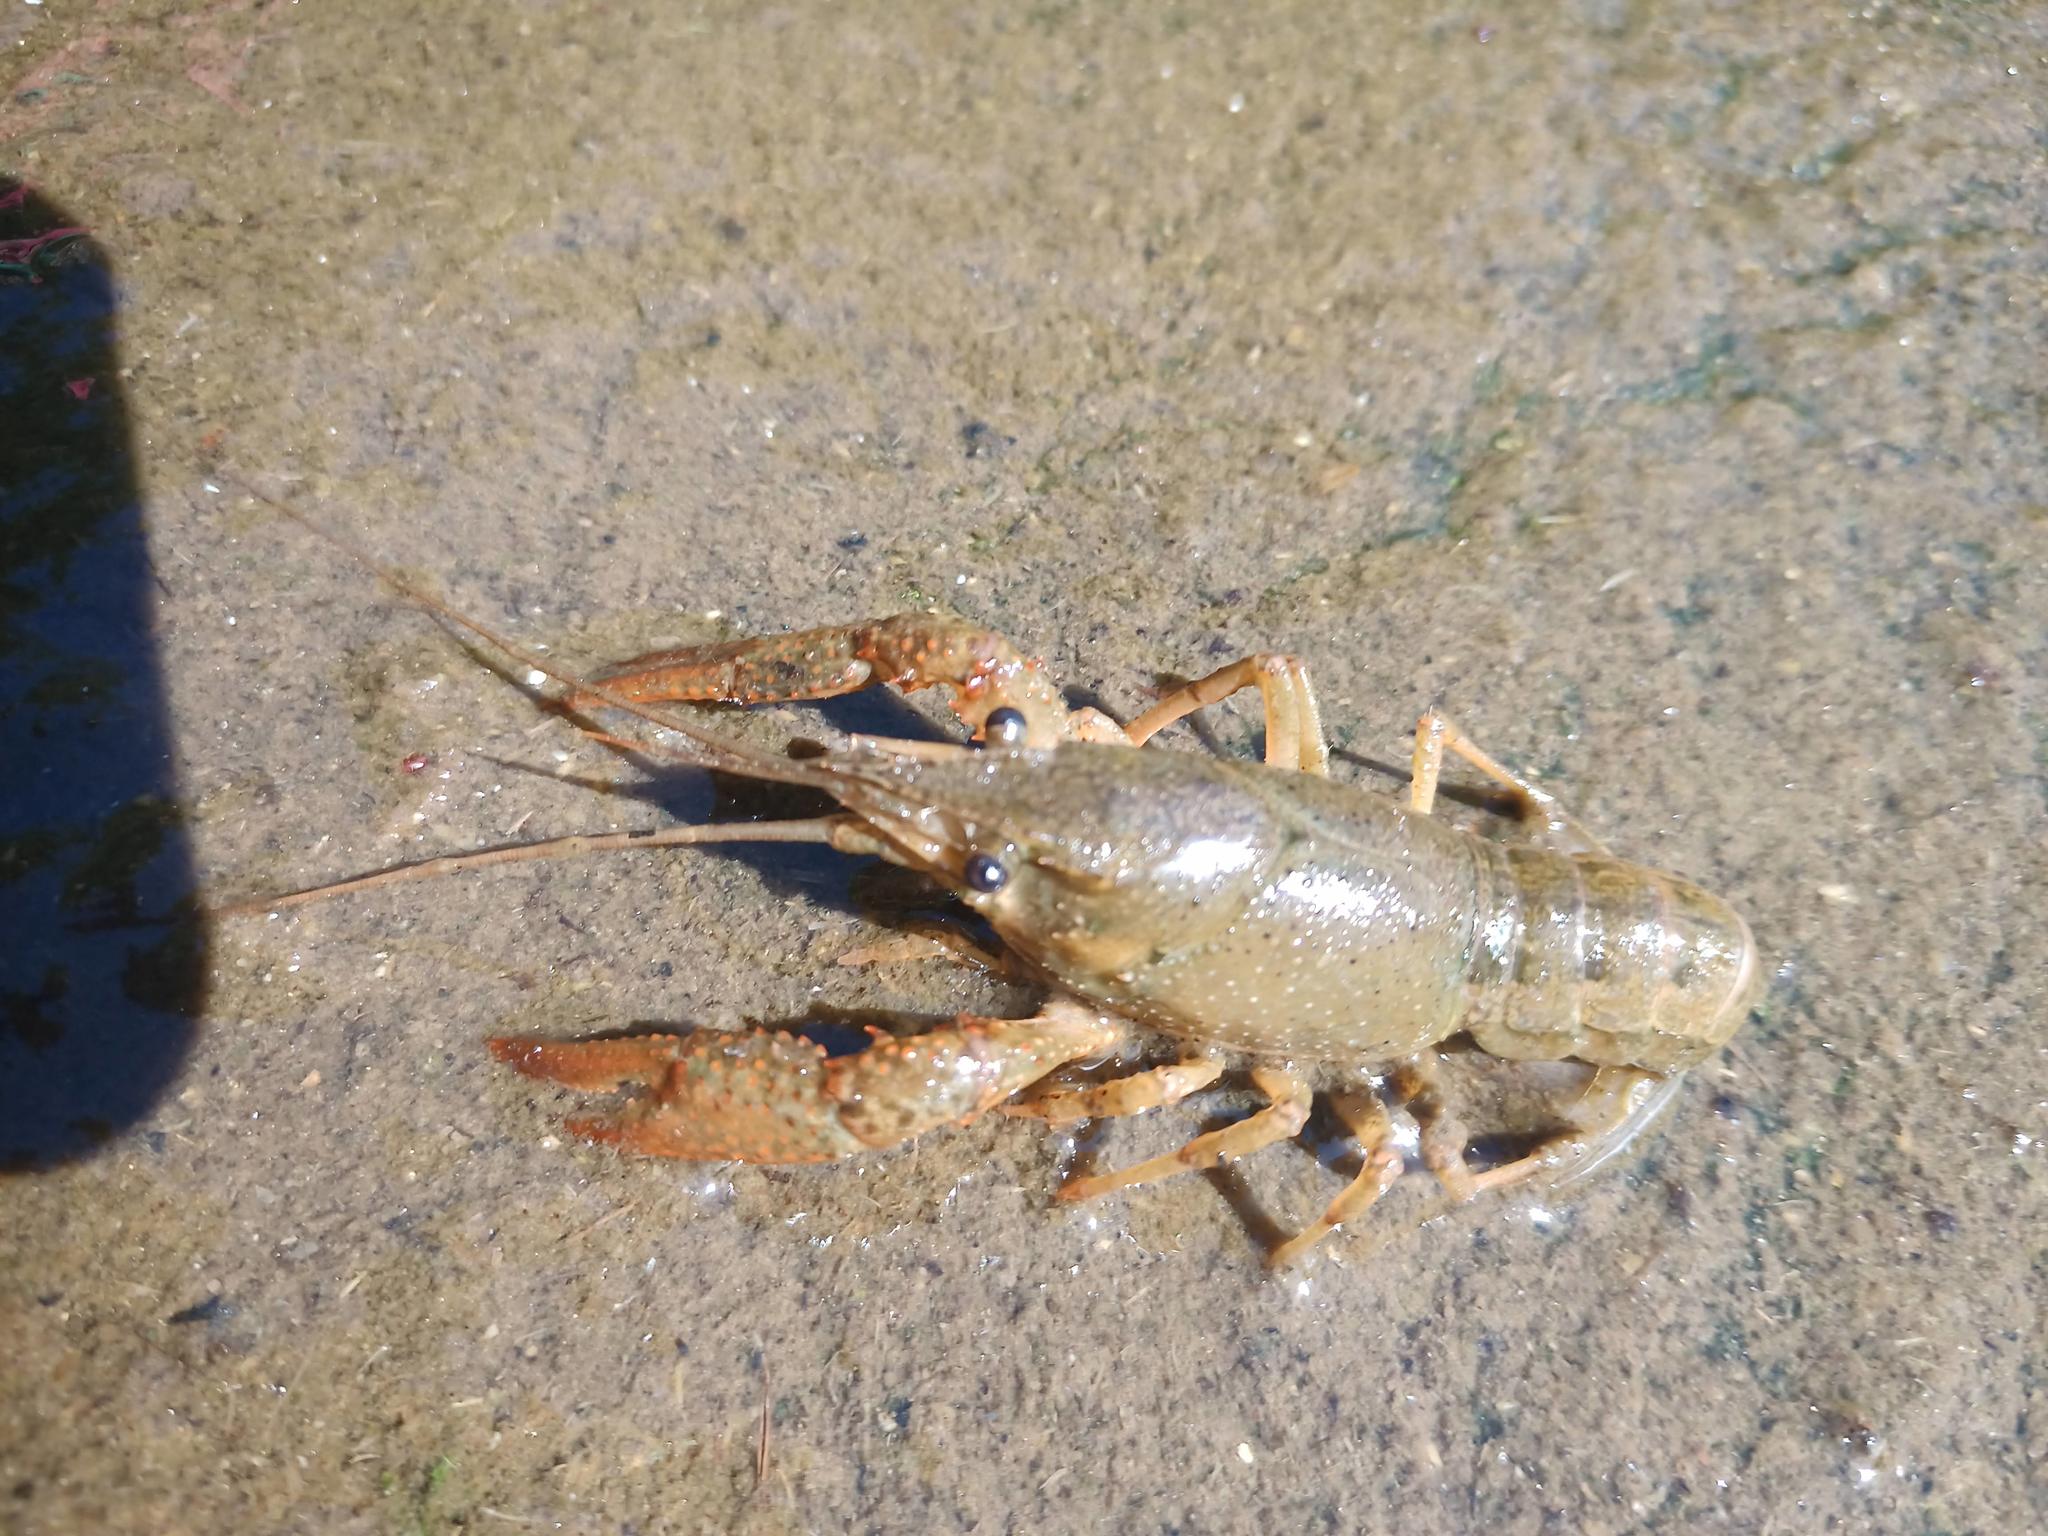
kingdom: Animalia
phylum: Arthropoda
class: Malacostraca
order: Decapoda
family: Cambaridae
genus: Procambarus
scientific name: Procambarus clarkii
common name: Red swamp crayfish
